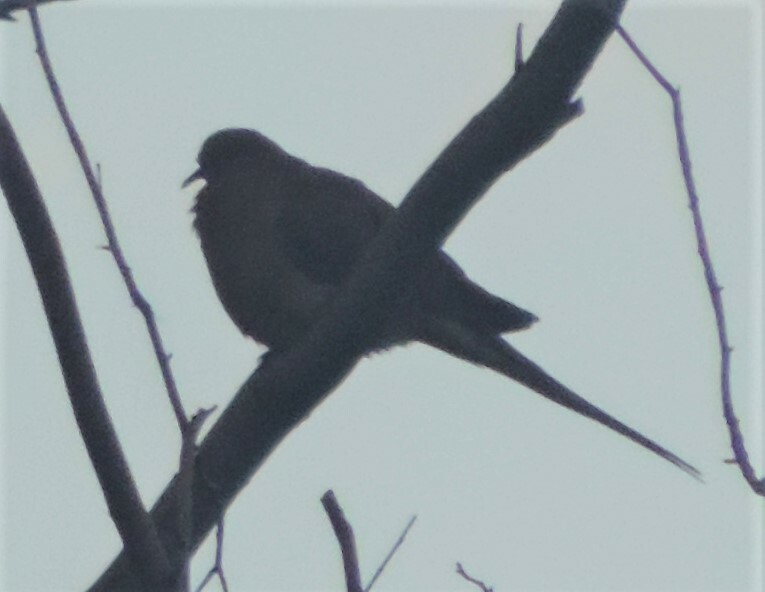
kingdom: Animalia
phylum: Chordata
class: Aves
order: Columbiformes
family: Columbidae
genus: Zenaida
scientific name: Zenaida macroura
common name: Mourning dove
